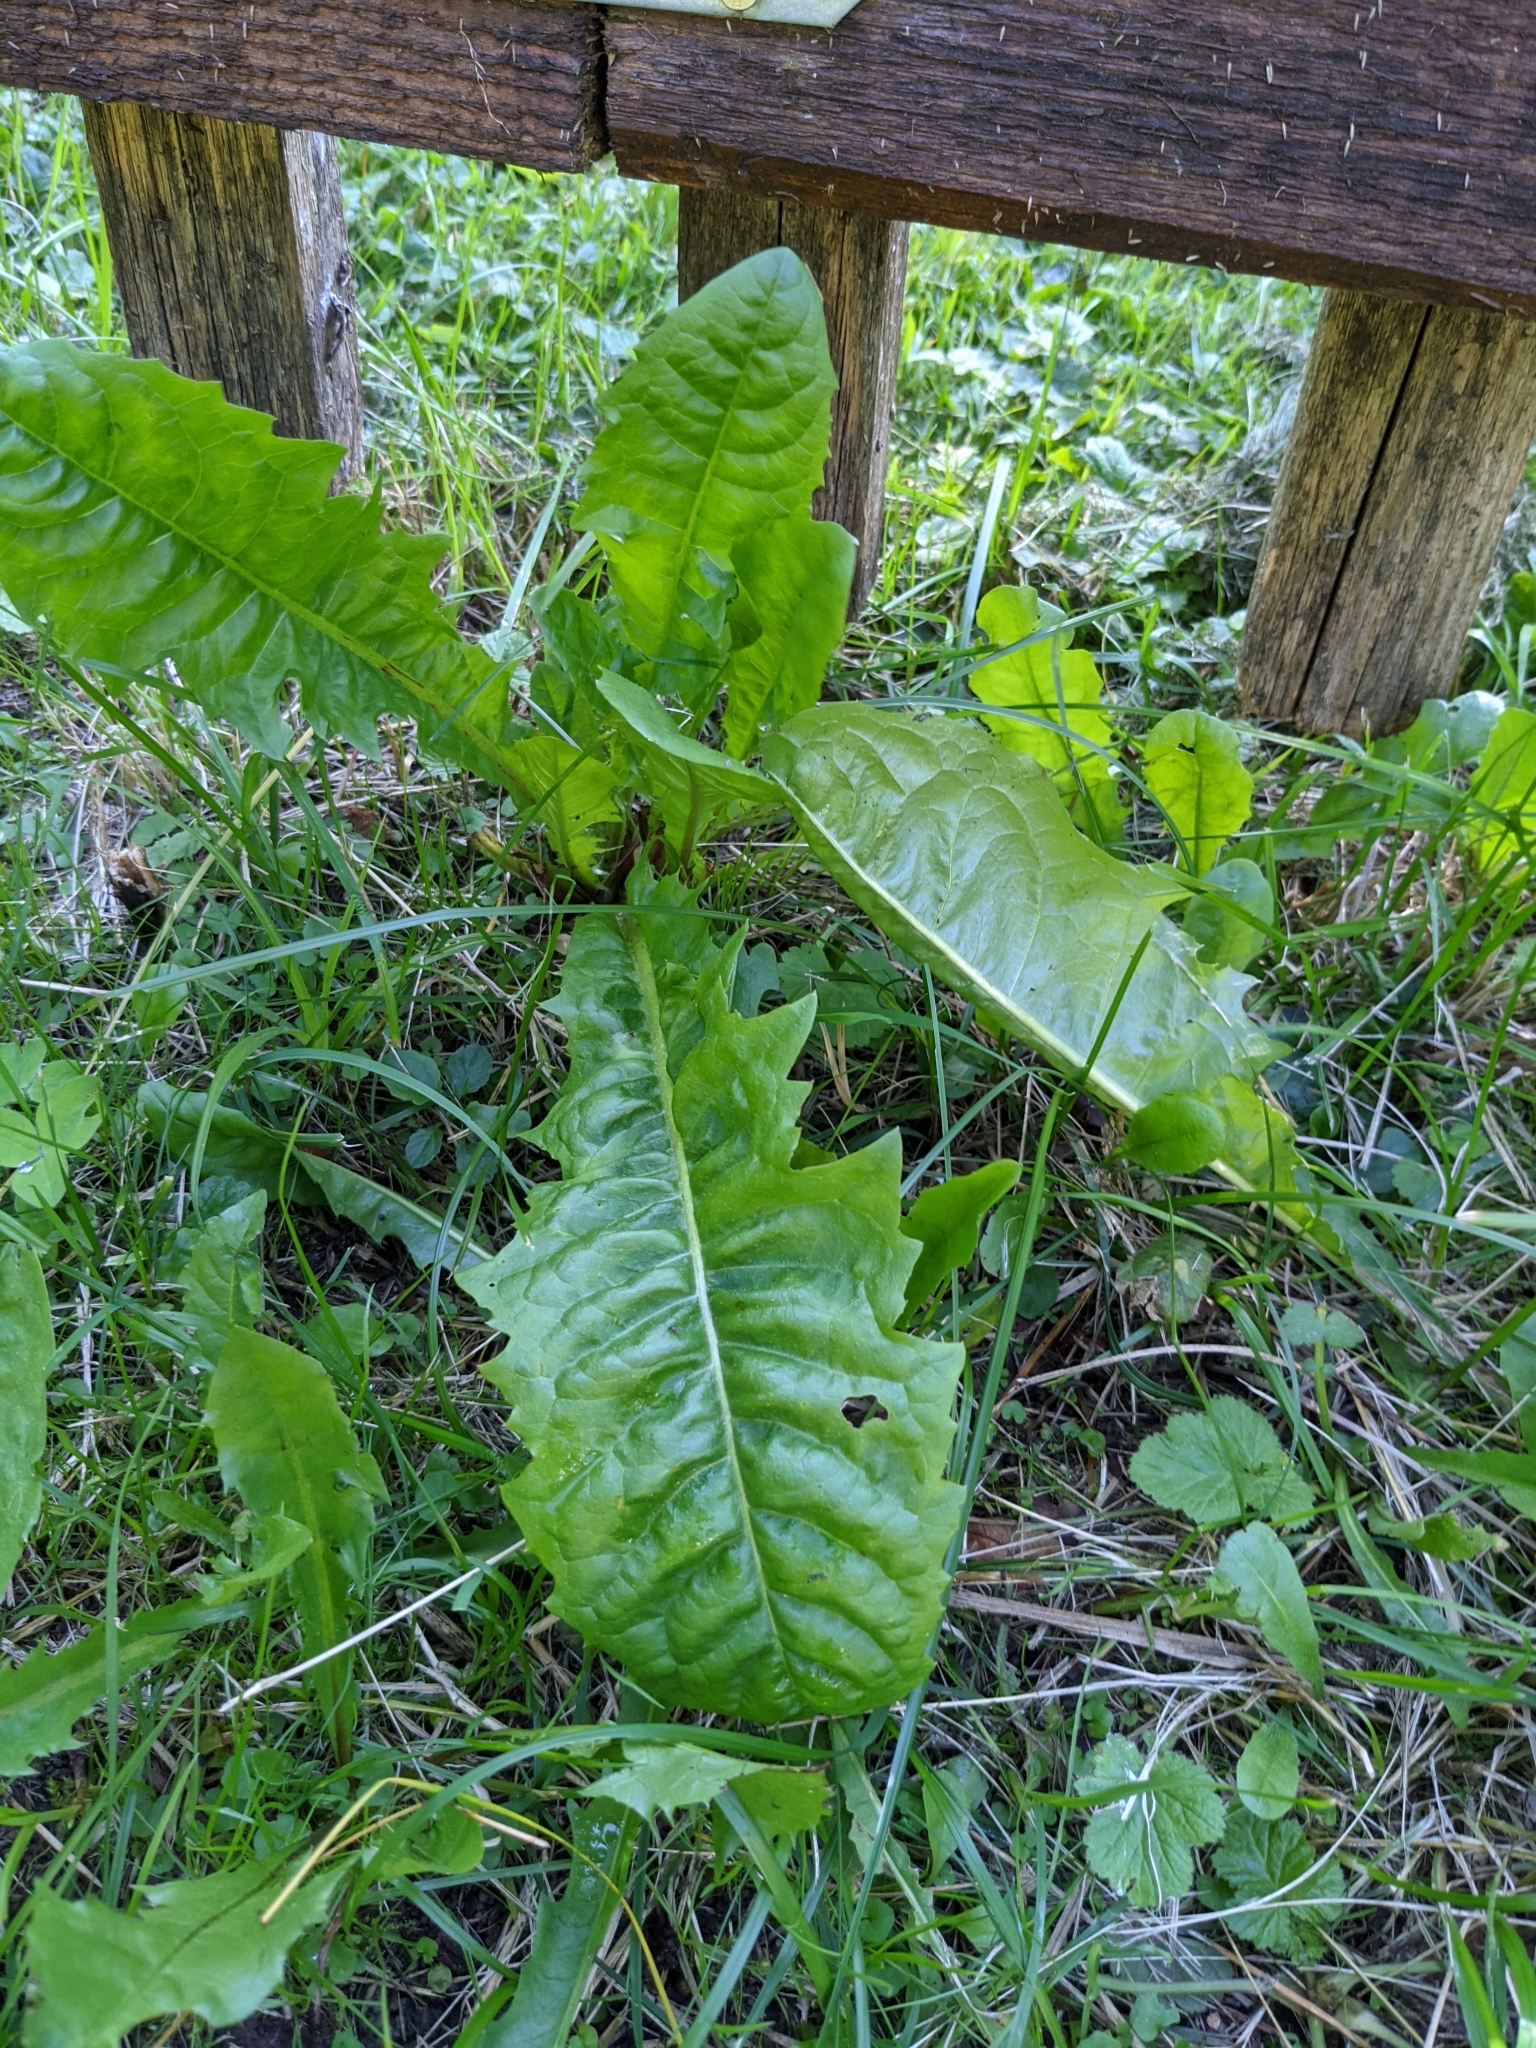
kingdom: Plantae
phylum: Tracheophyta
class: Magnoliopsida
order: Asterales
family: Asteraceae
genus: Taraxacum
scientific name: Taraxacum officinale
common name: Common dandelion
